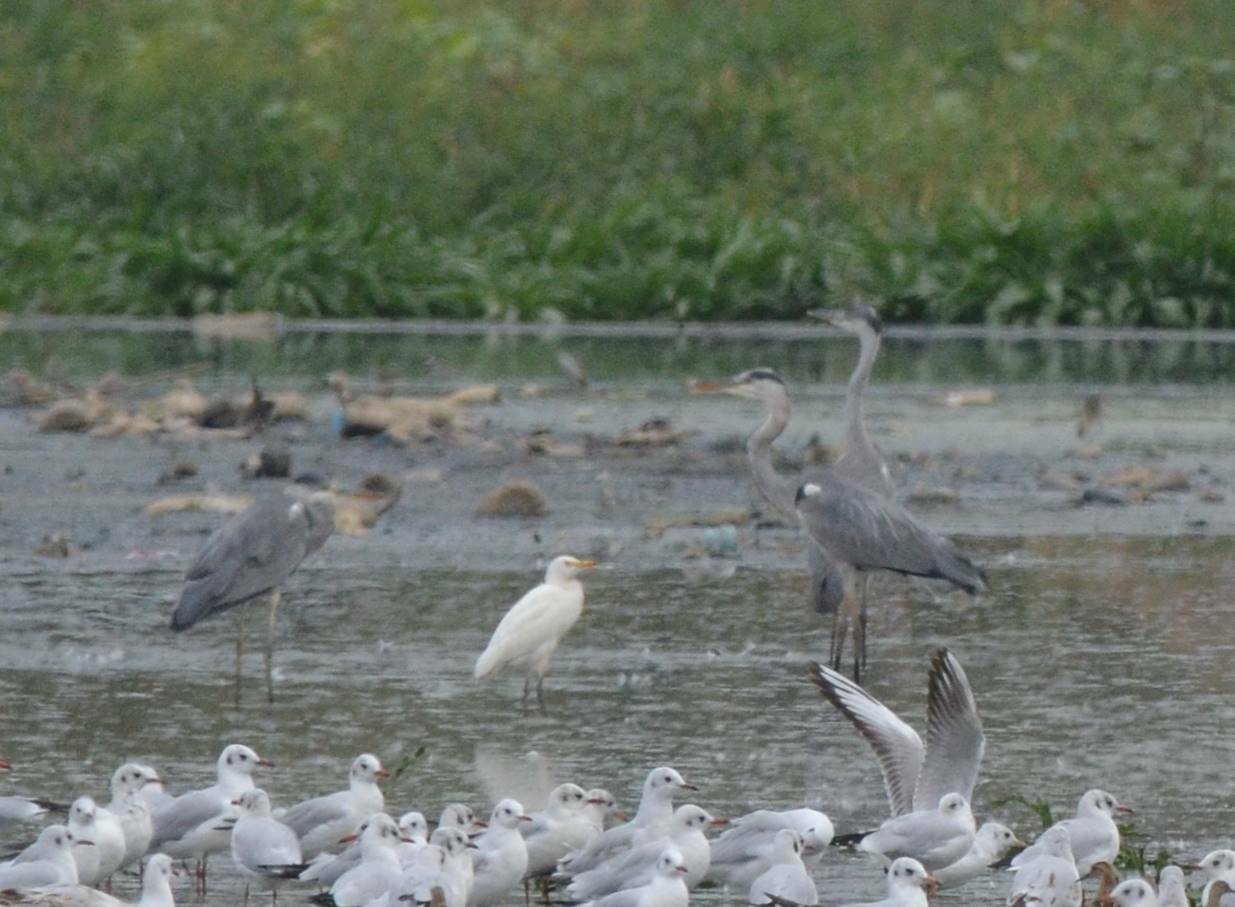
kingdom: Animalia
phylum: Chordata
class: Aves
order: Pelecaniformes
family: Ardeidae
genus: Ardea
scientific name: Ardea cinerea
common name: Grey heron
